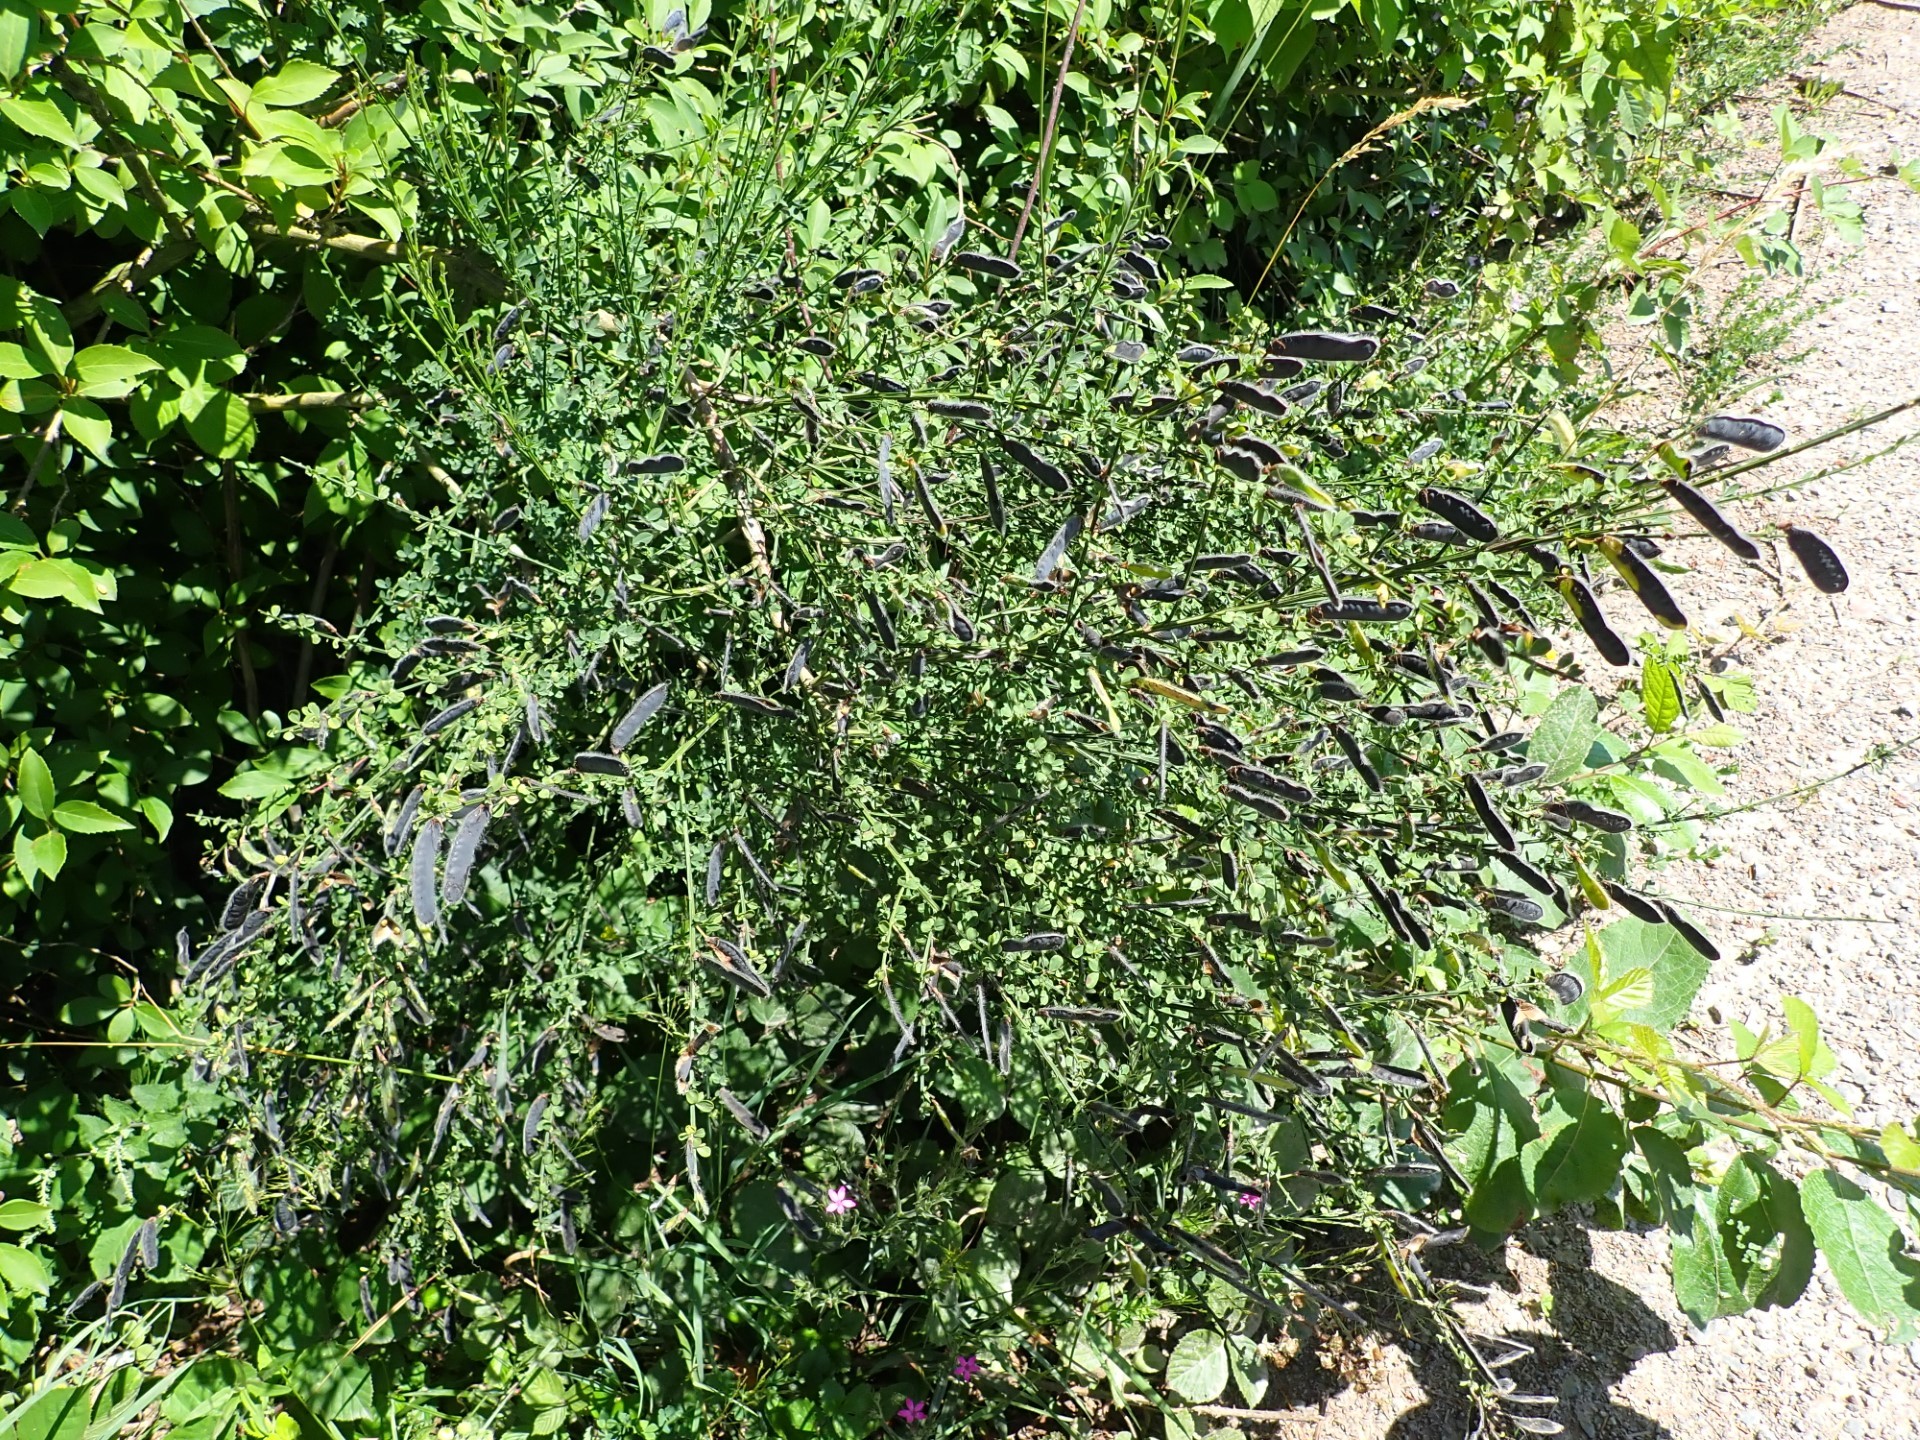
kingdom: Plantae
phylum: Tracheophyta
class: Magnoliopsida
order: Fabales
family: Fabaceae
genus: Cytisus
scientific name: Cytisus scoparius
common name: Scotch broom
